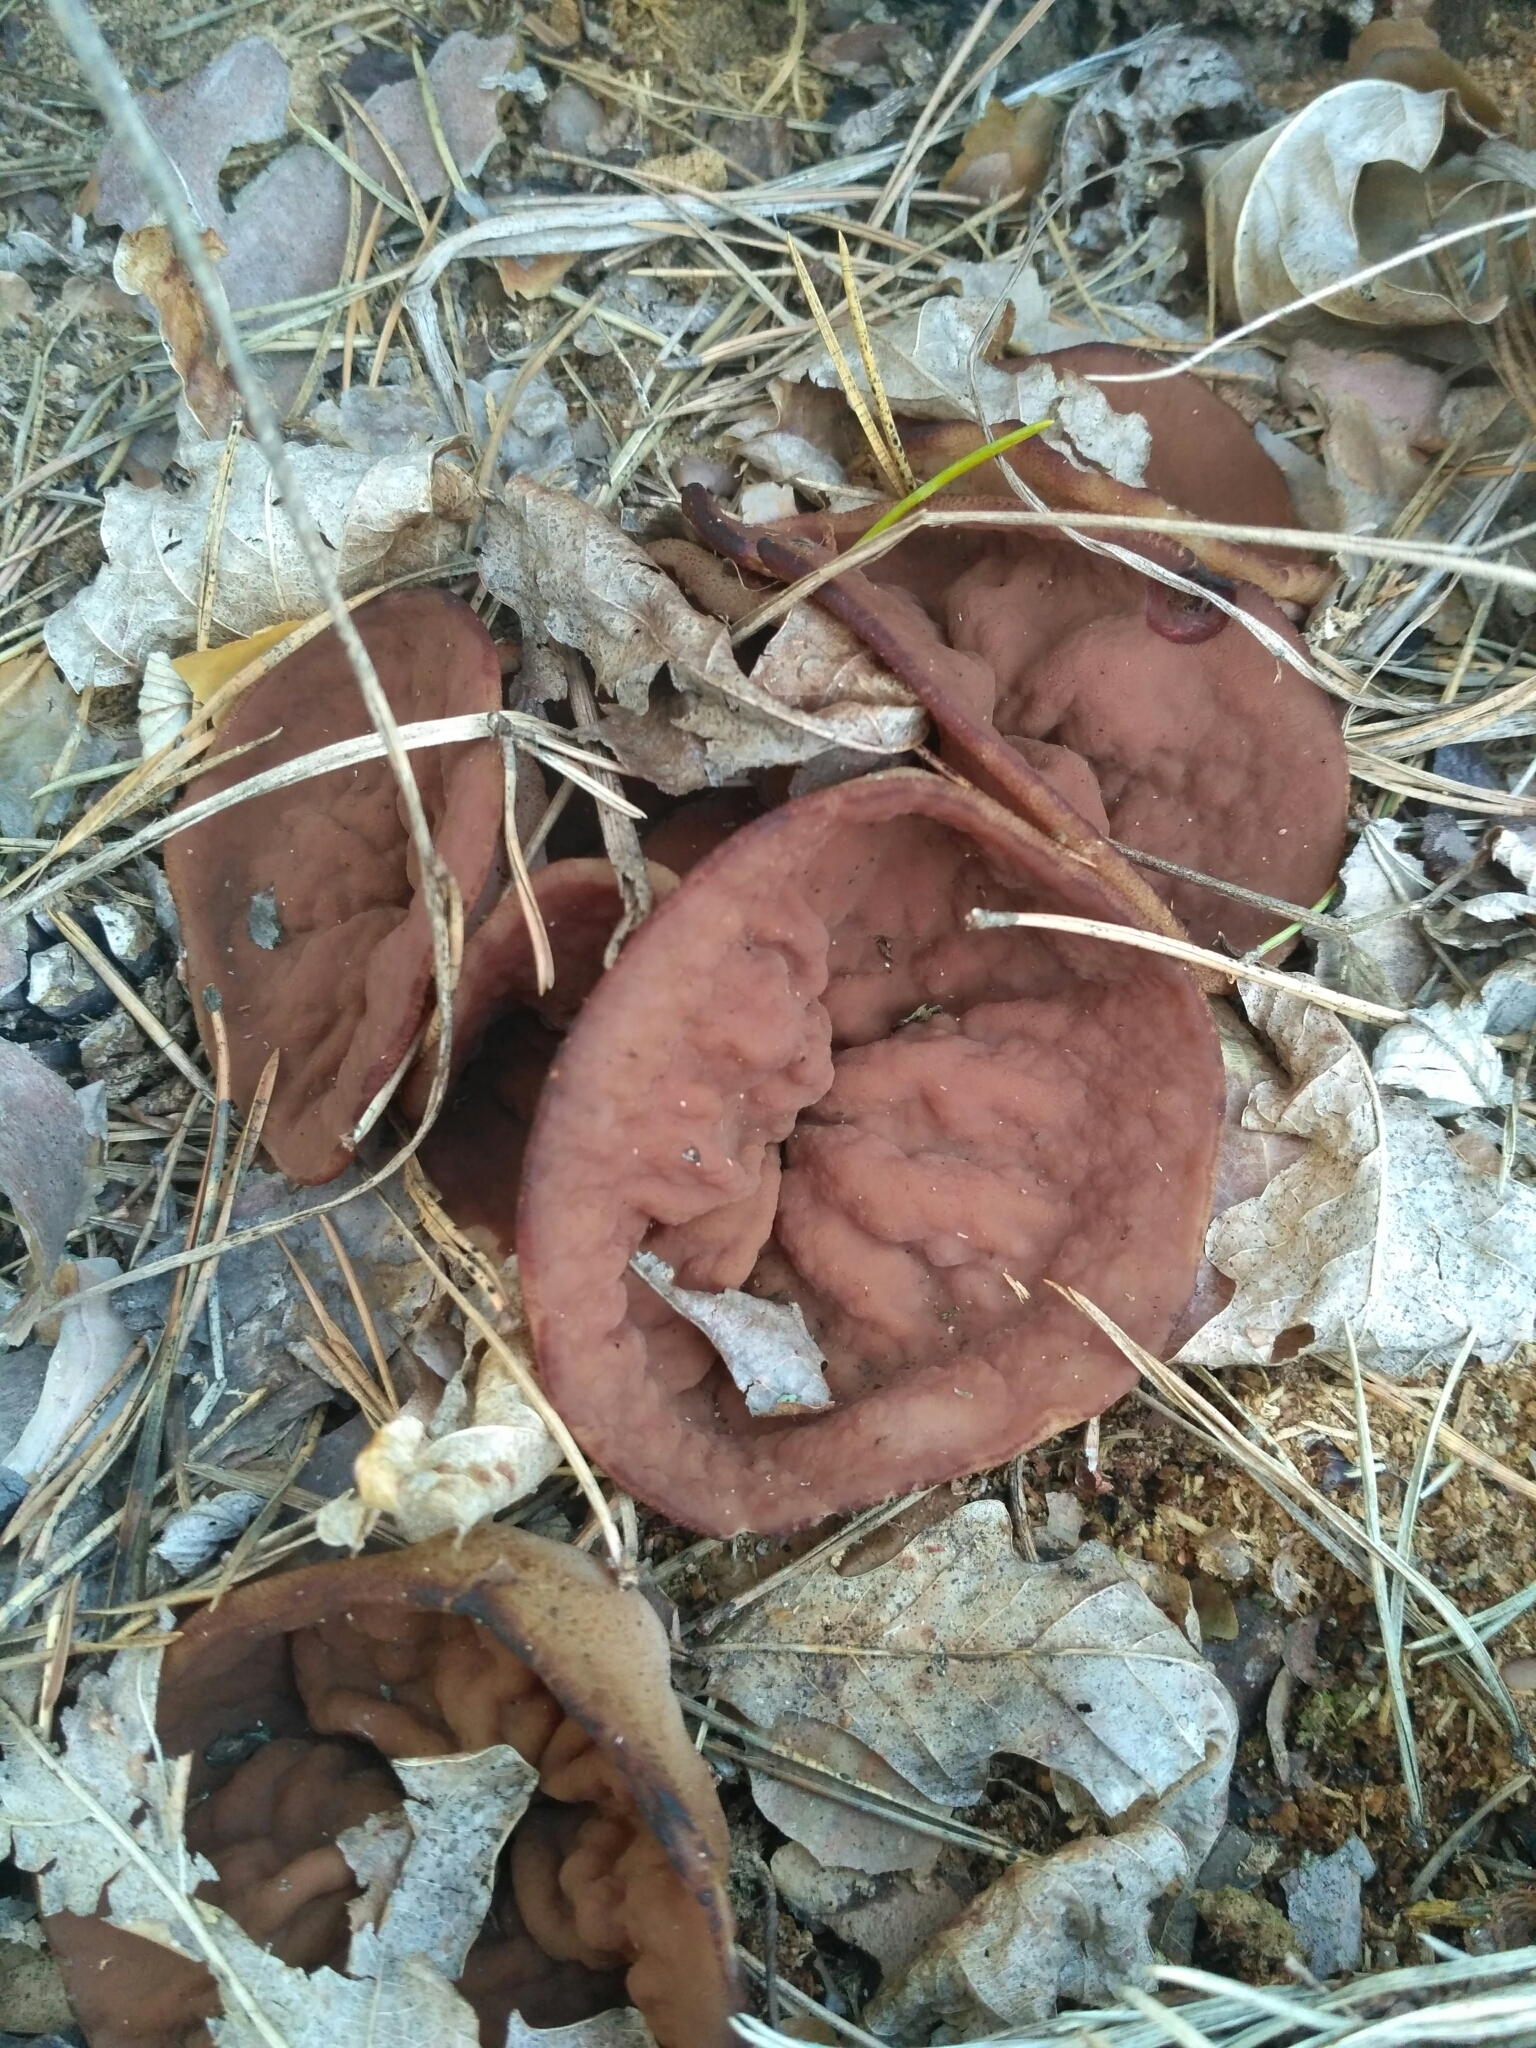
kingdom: Fungi
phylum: Ascomycota
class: Pezizomycetes
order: Pezizales
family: Discinaceae
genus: Discina
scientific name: Discina ancilis
